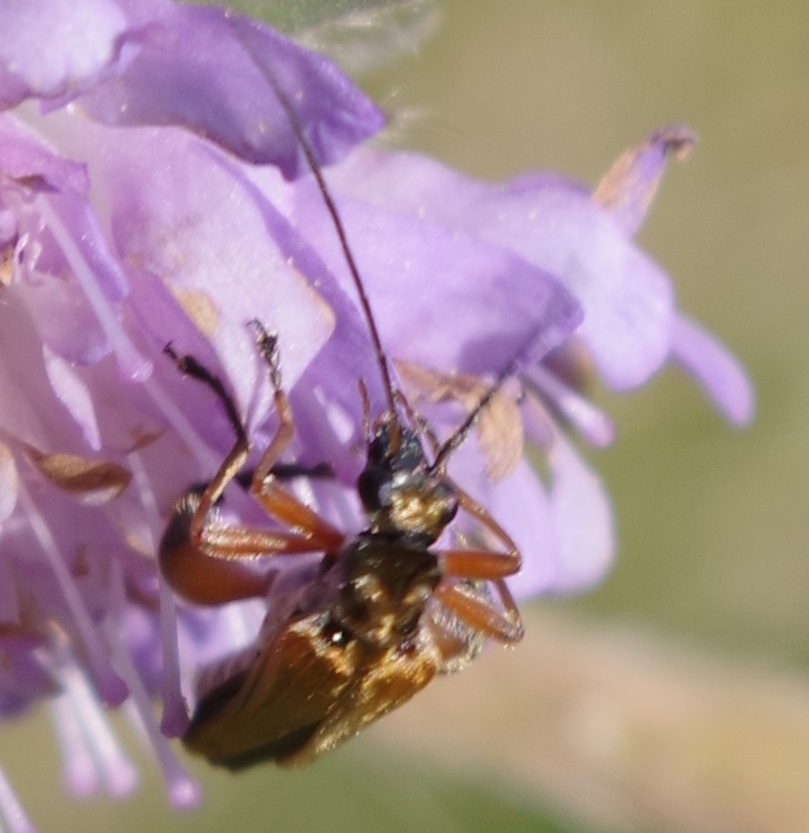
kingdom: Animalia
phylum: Arthropoda
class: Insecta
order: Coleoptera
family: Oedemeridae
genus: Oedemera
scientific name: Oedemera podagrariae
